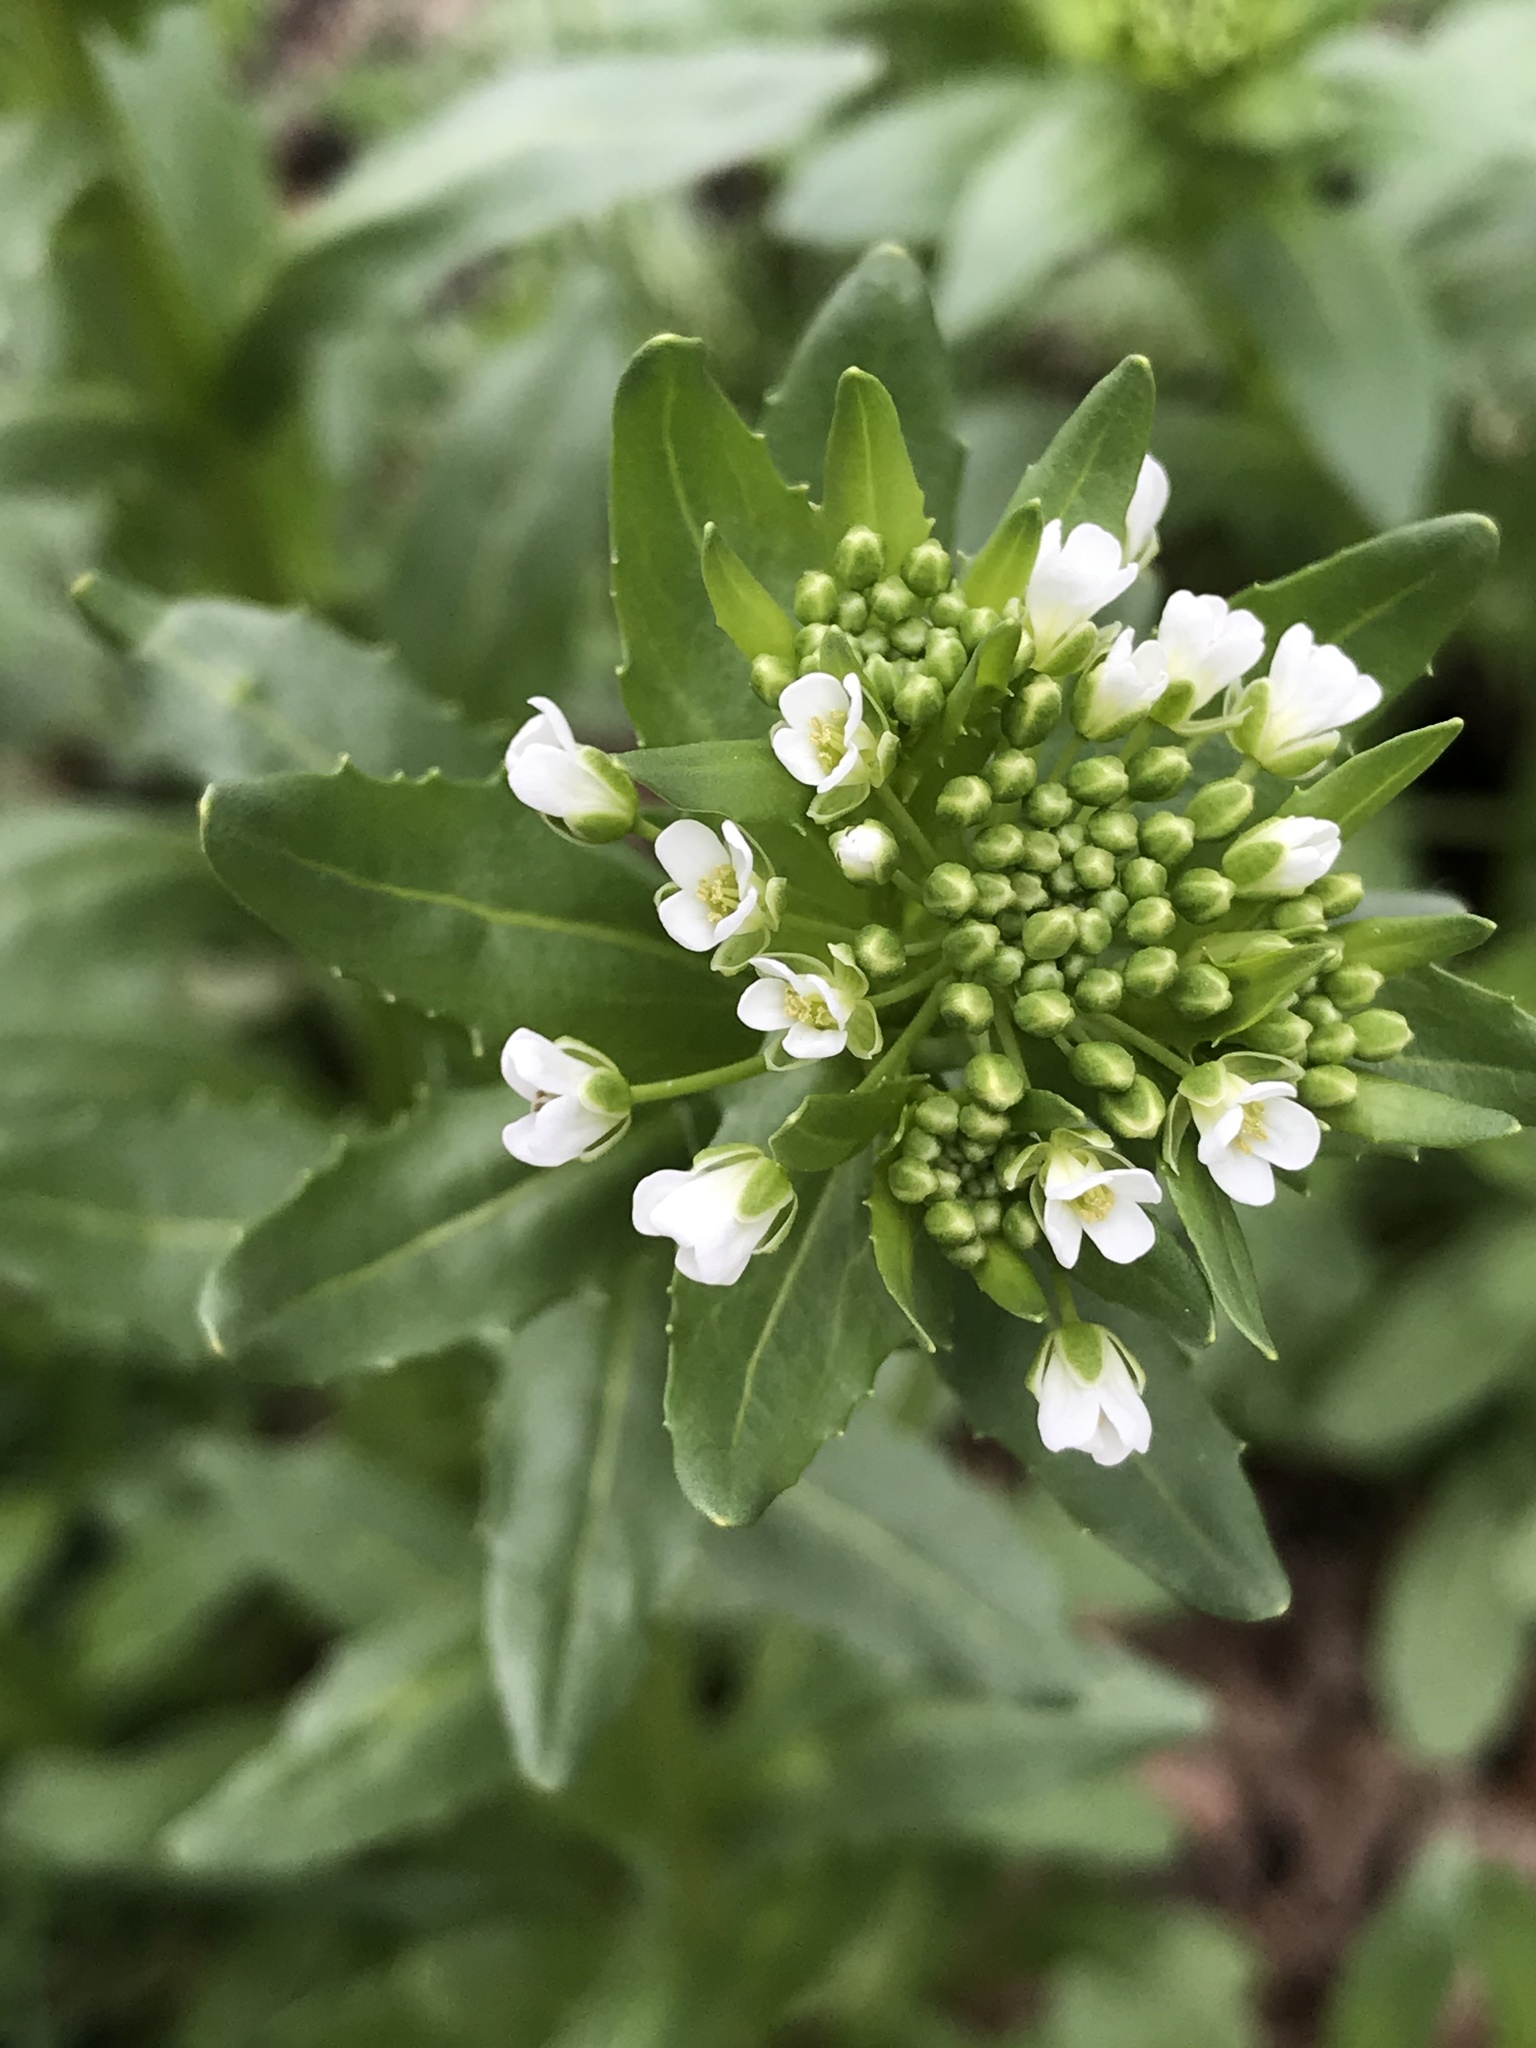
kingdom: Plantae
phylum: Tracheophyta
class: Magnoliopsida
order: Brassicales
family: Brassicaceae
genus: Thlaspi
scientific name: Thlaspi arvense
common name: Field pennycress
